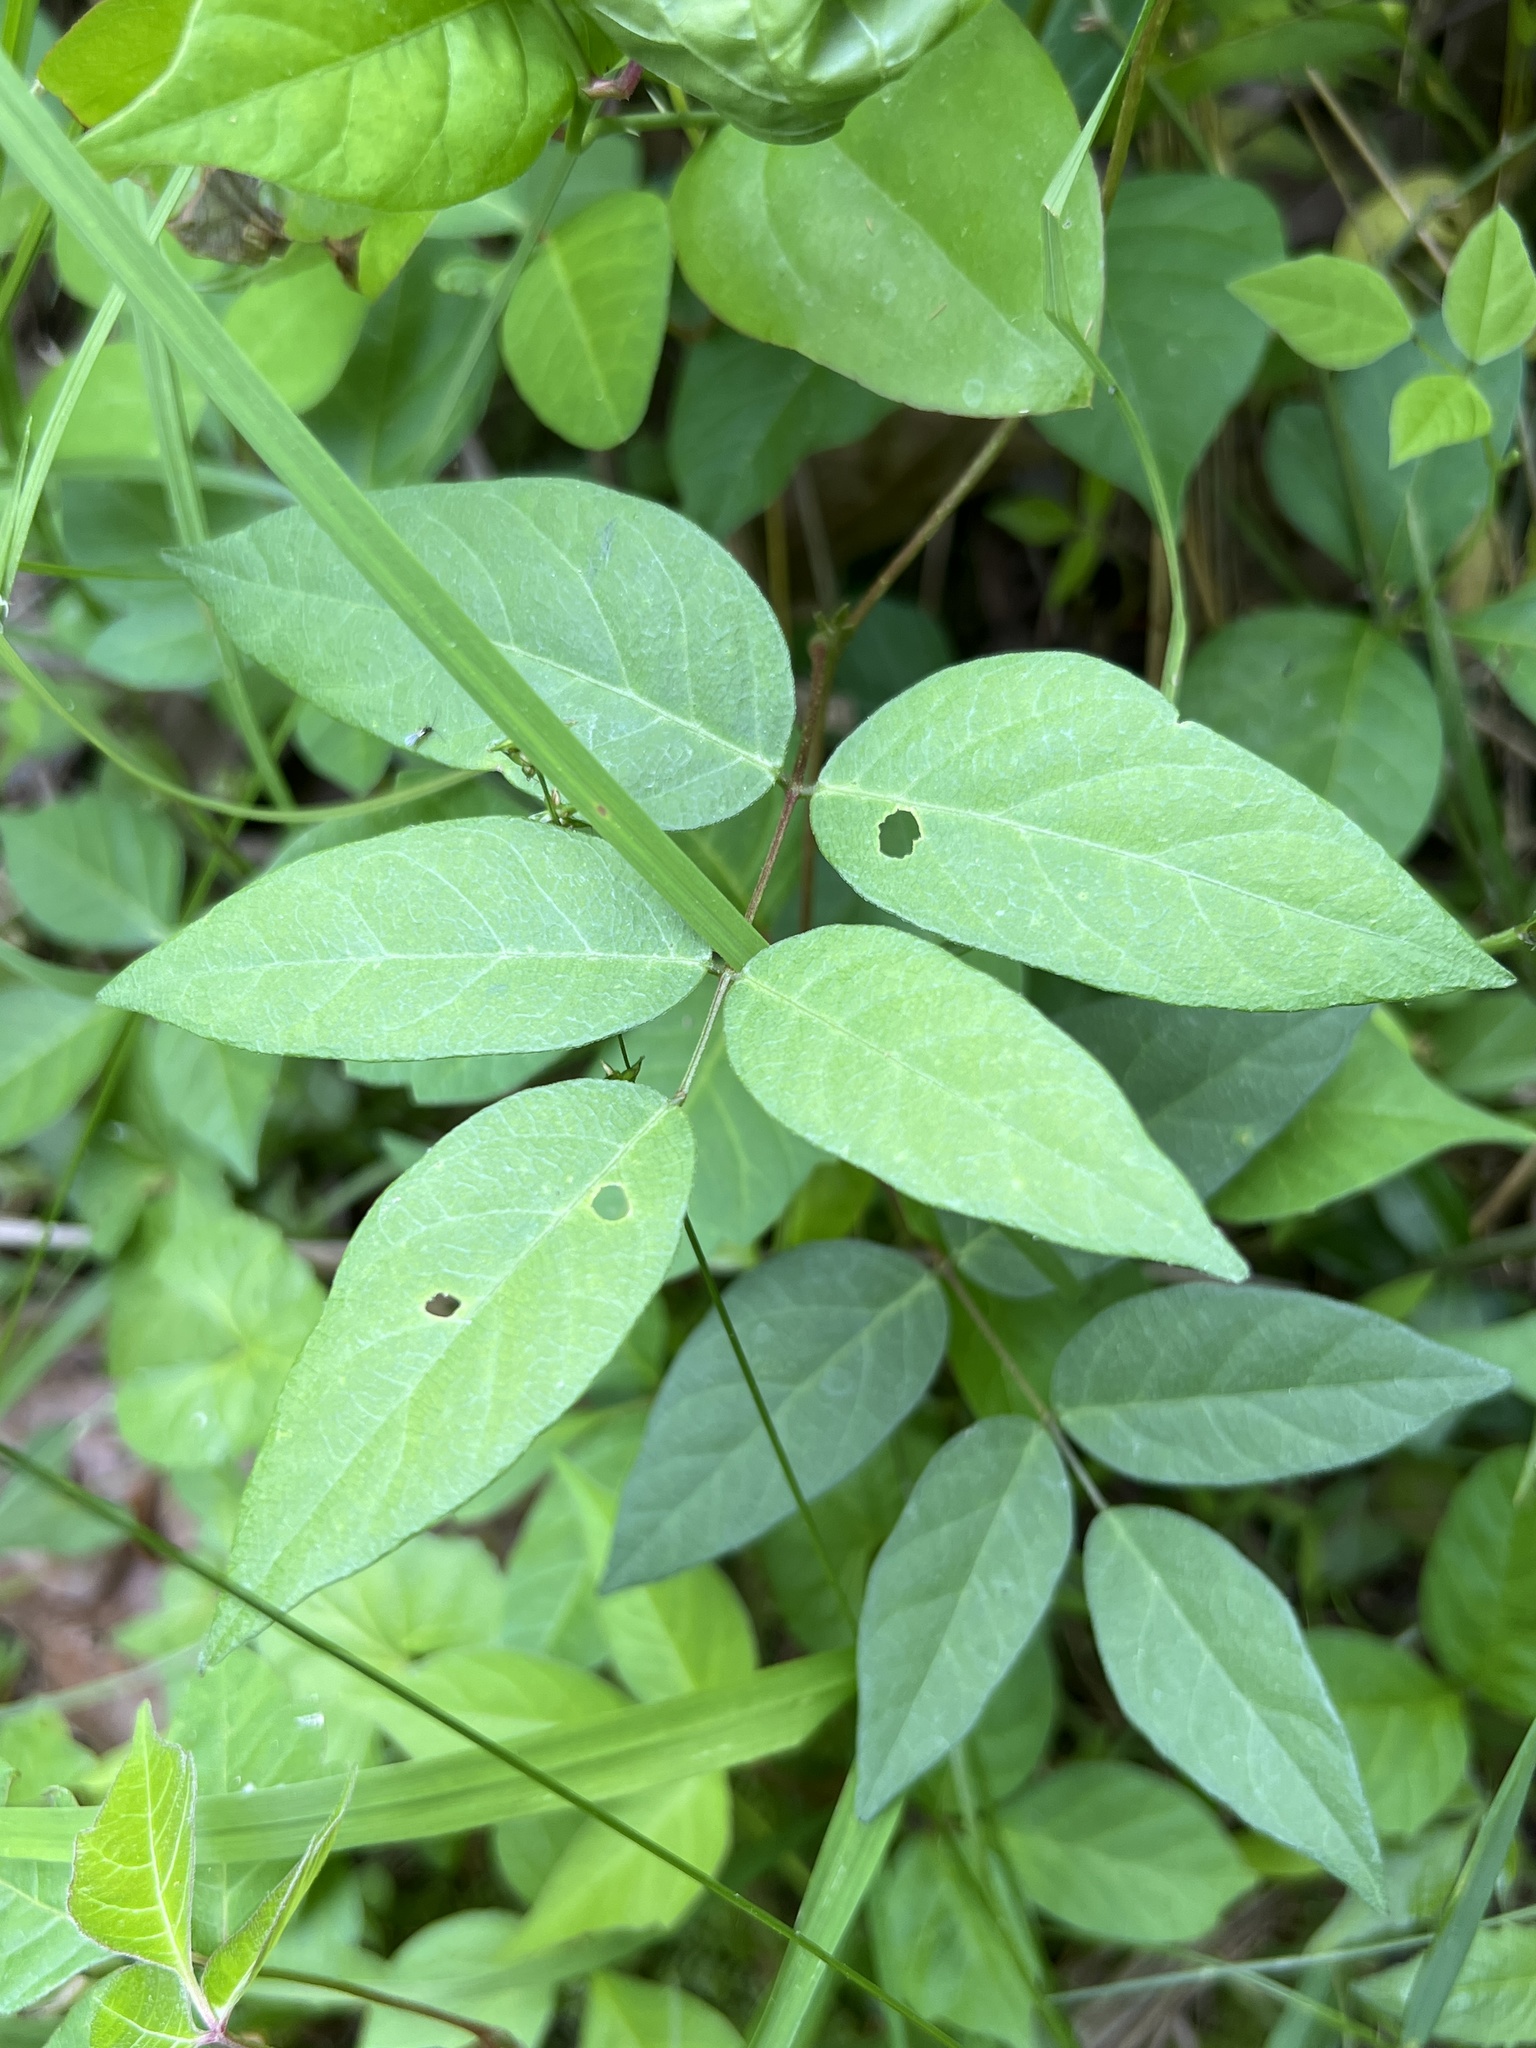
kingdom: Plantae
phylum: Tracheophyta
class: Magnoliopsida
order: Fabales
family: Fabaceae
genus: Apios
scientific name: Apios americana
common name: American potato-bean
